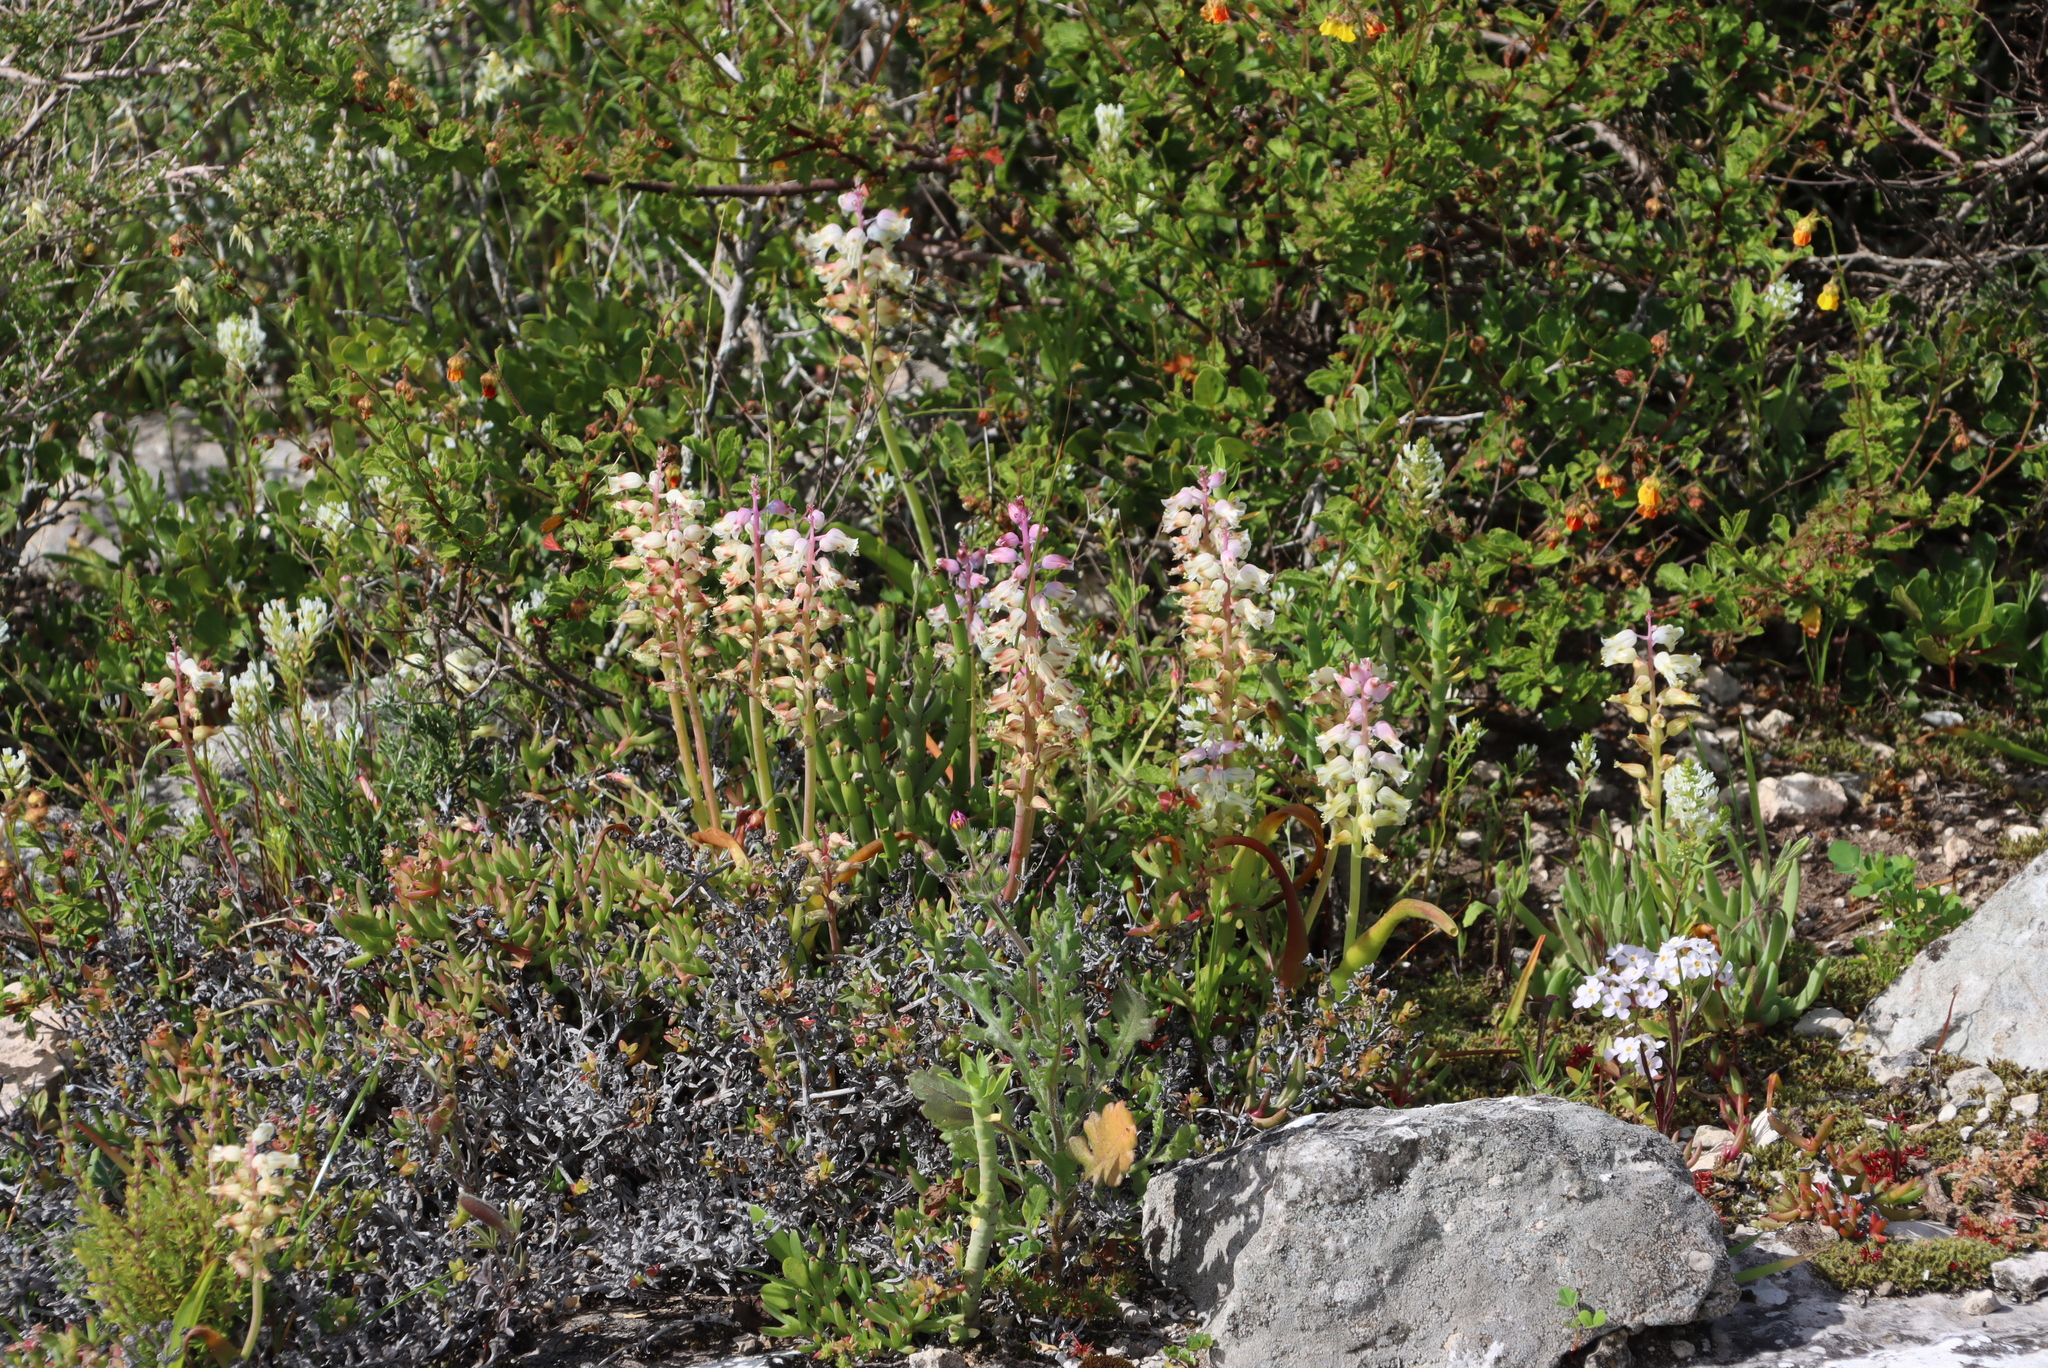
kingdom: Plantae
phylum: Tracheophyta
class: Liliopsida
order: Asparagales
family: Asparagaceae
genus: Lachenalia
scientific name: Lachenalia pallida
